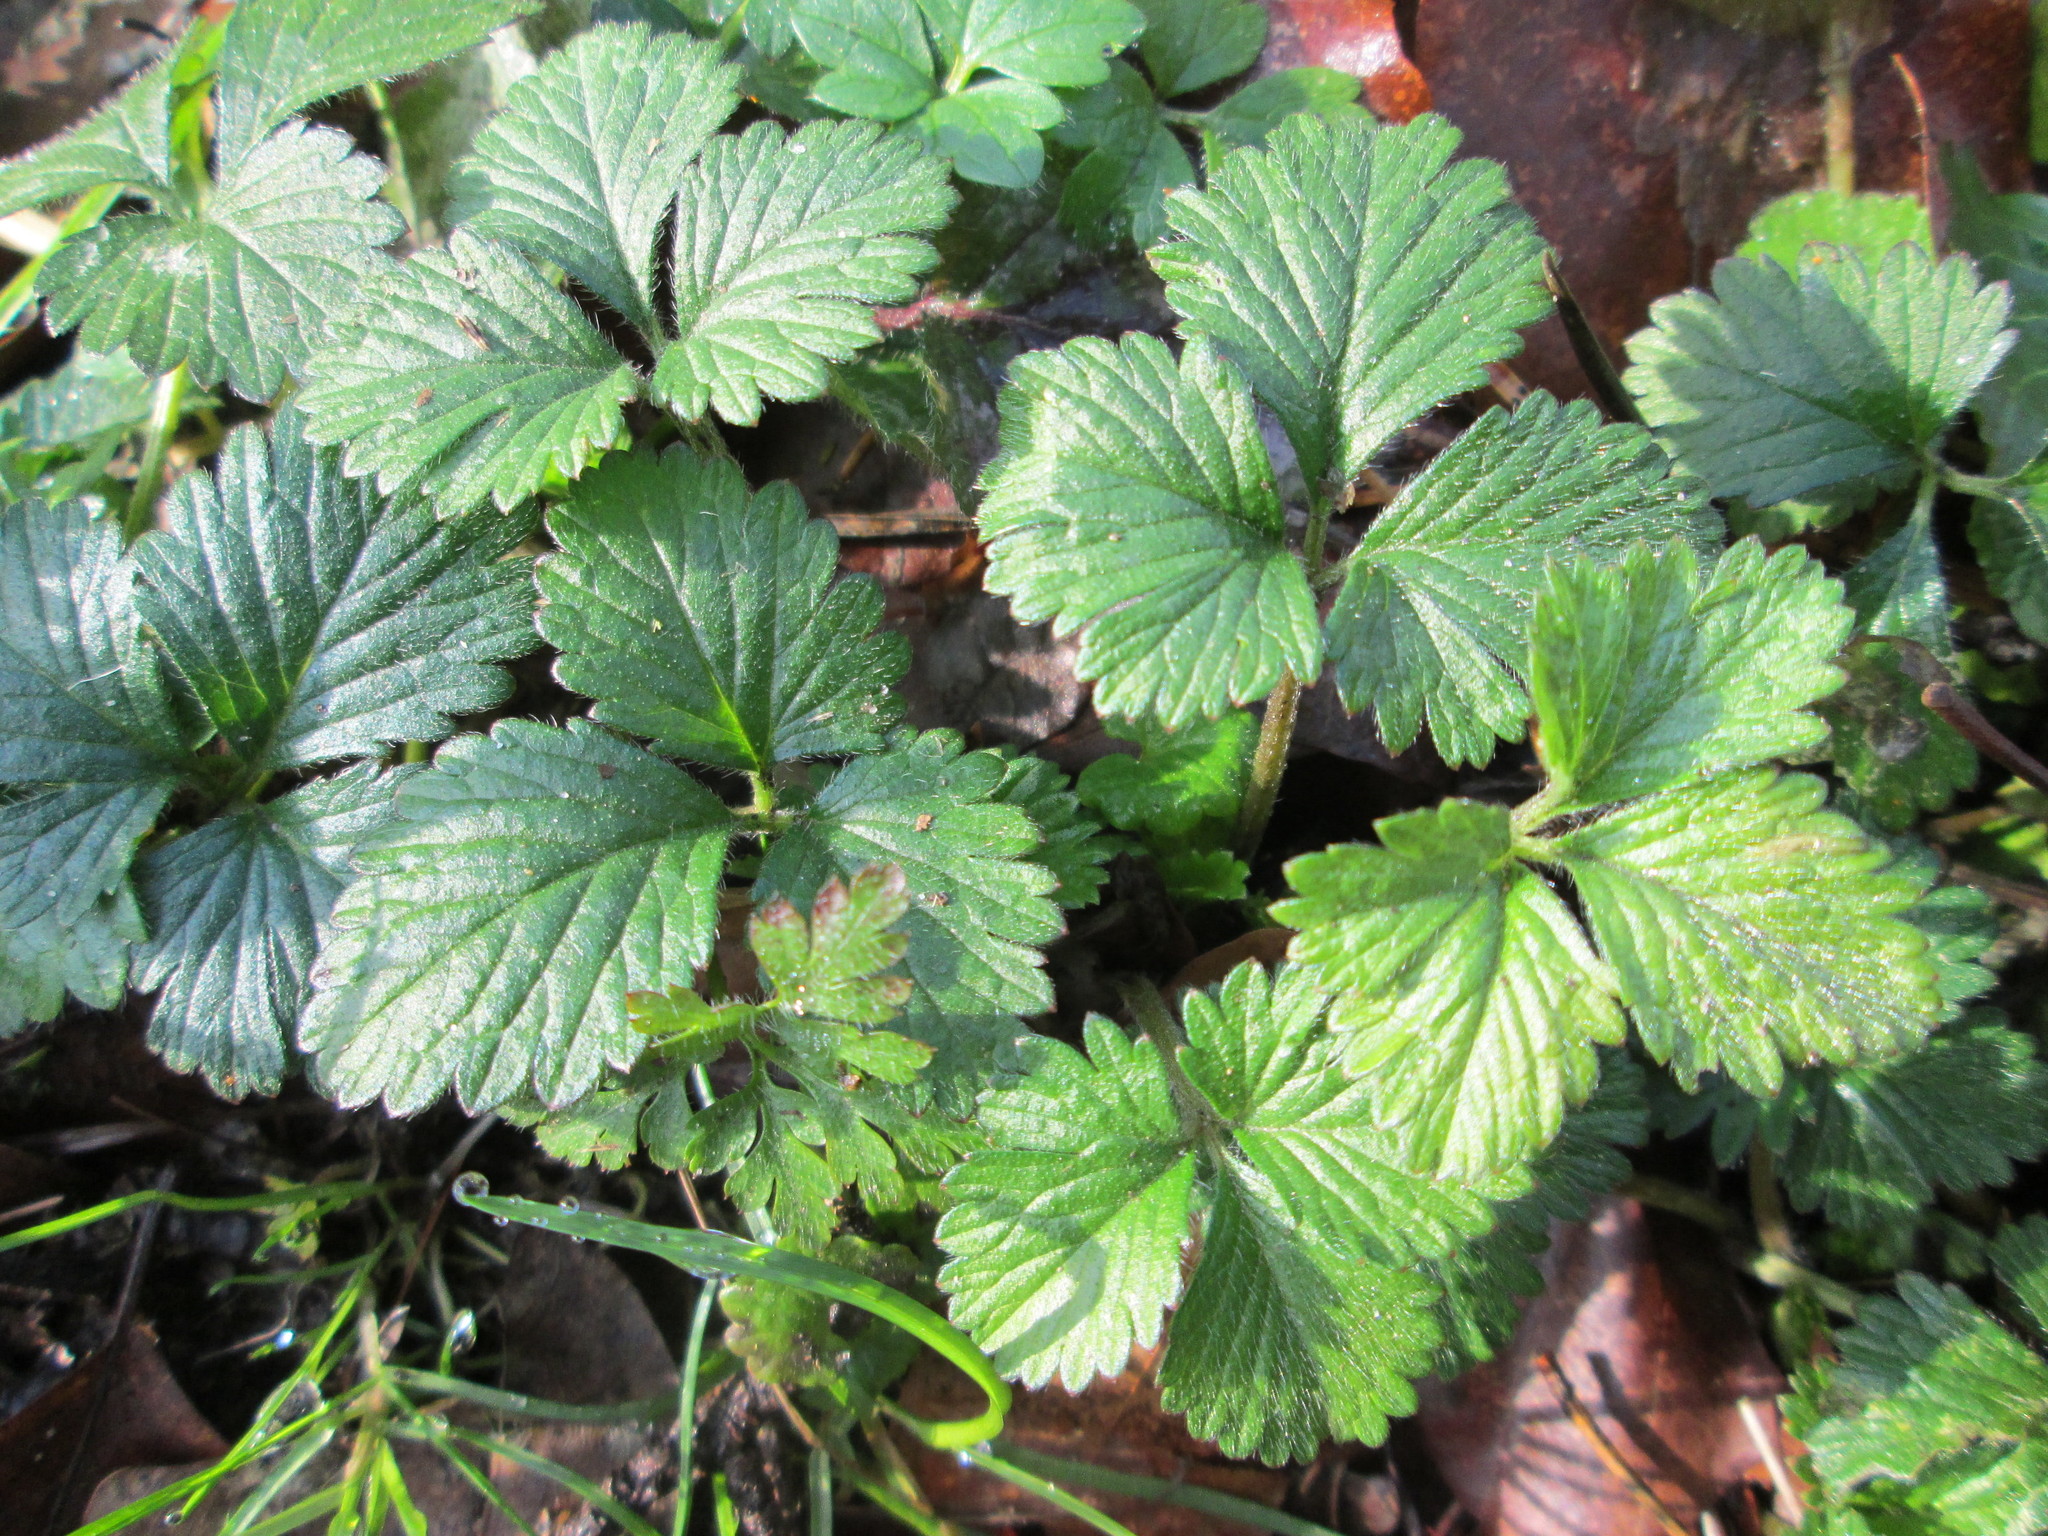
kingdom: Plantae
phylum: Tracheophyta
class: Magnoliopsida
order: Rosales
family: Rosaceae
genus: Potentilla
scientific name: Potentilla indica
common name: Yellow-flowered strawberry
